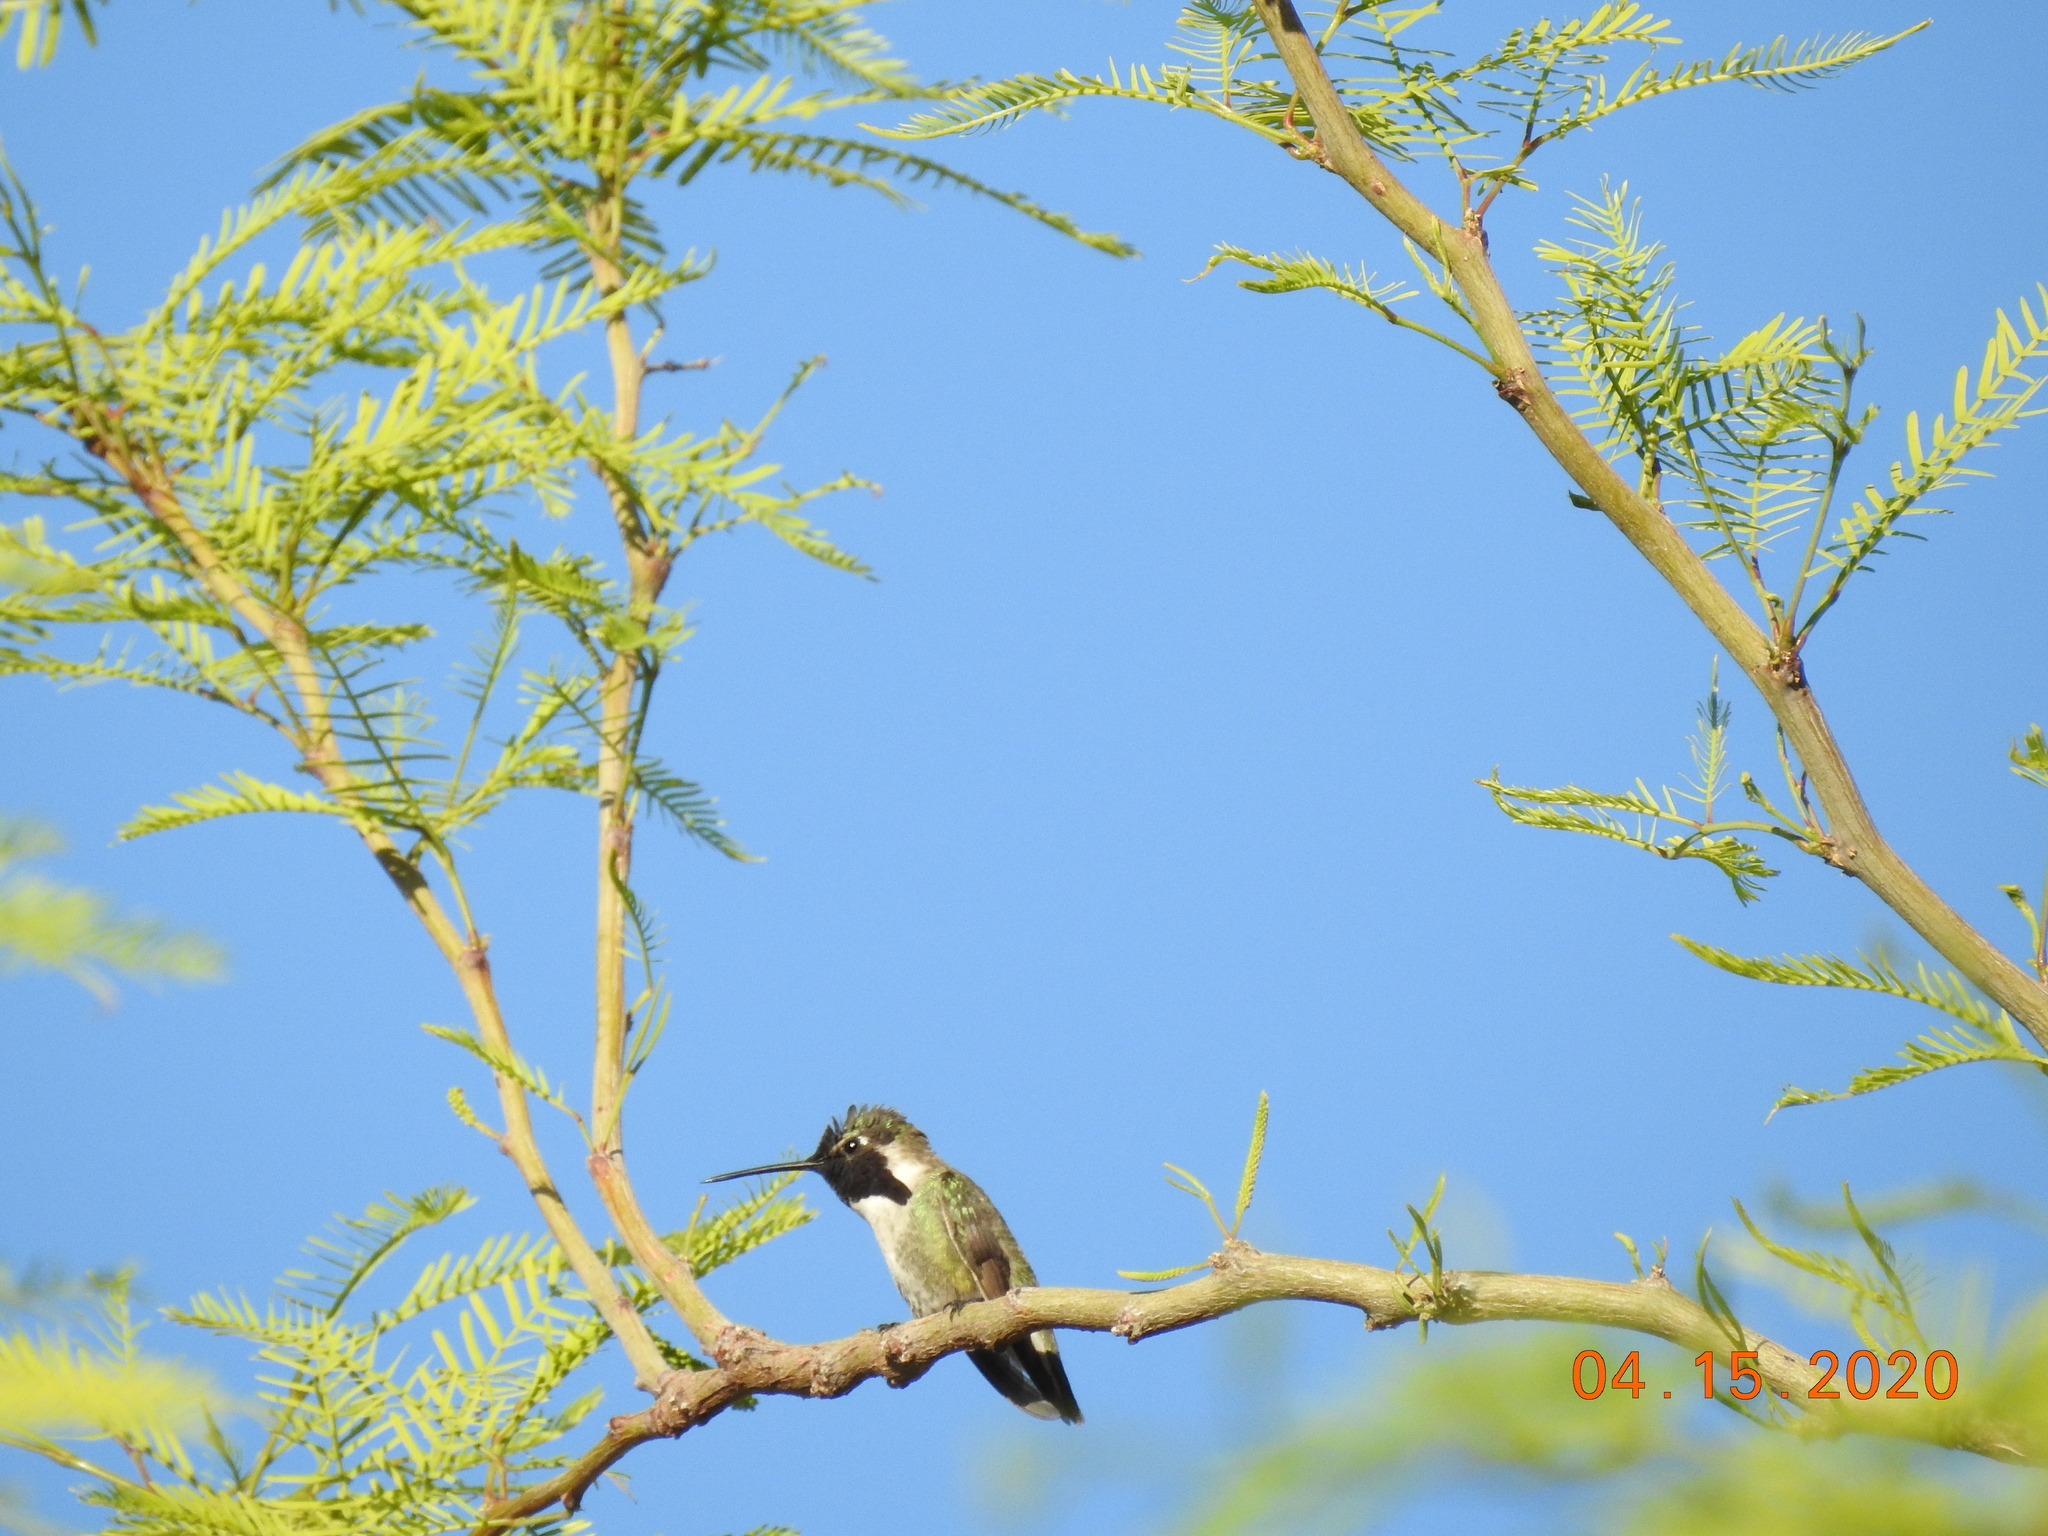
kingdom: Animalia
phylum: Chordata
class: Aves
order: Apodiformes
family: Trochilidae
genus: Calypte
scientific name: Calypte costae
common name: Costa's hummingbird
